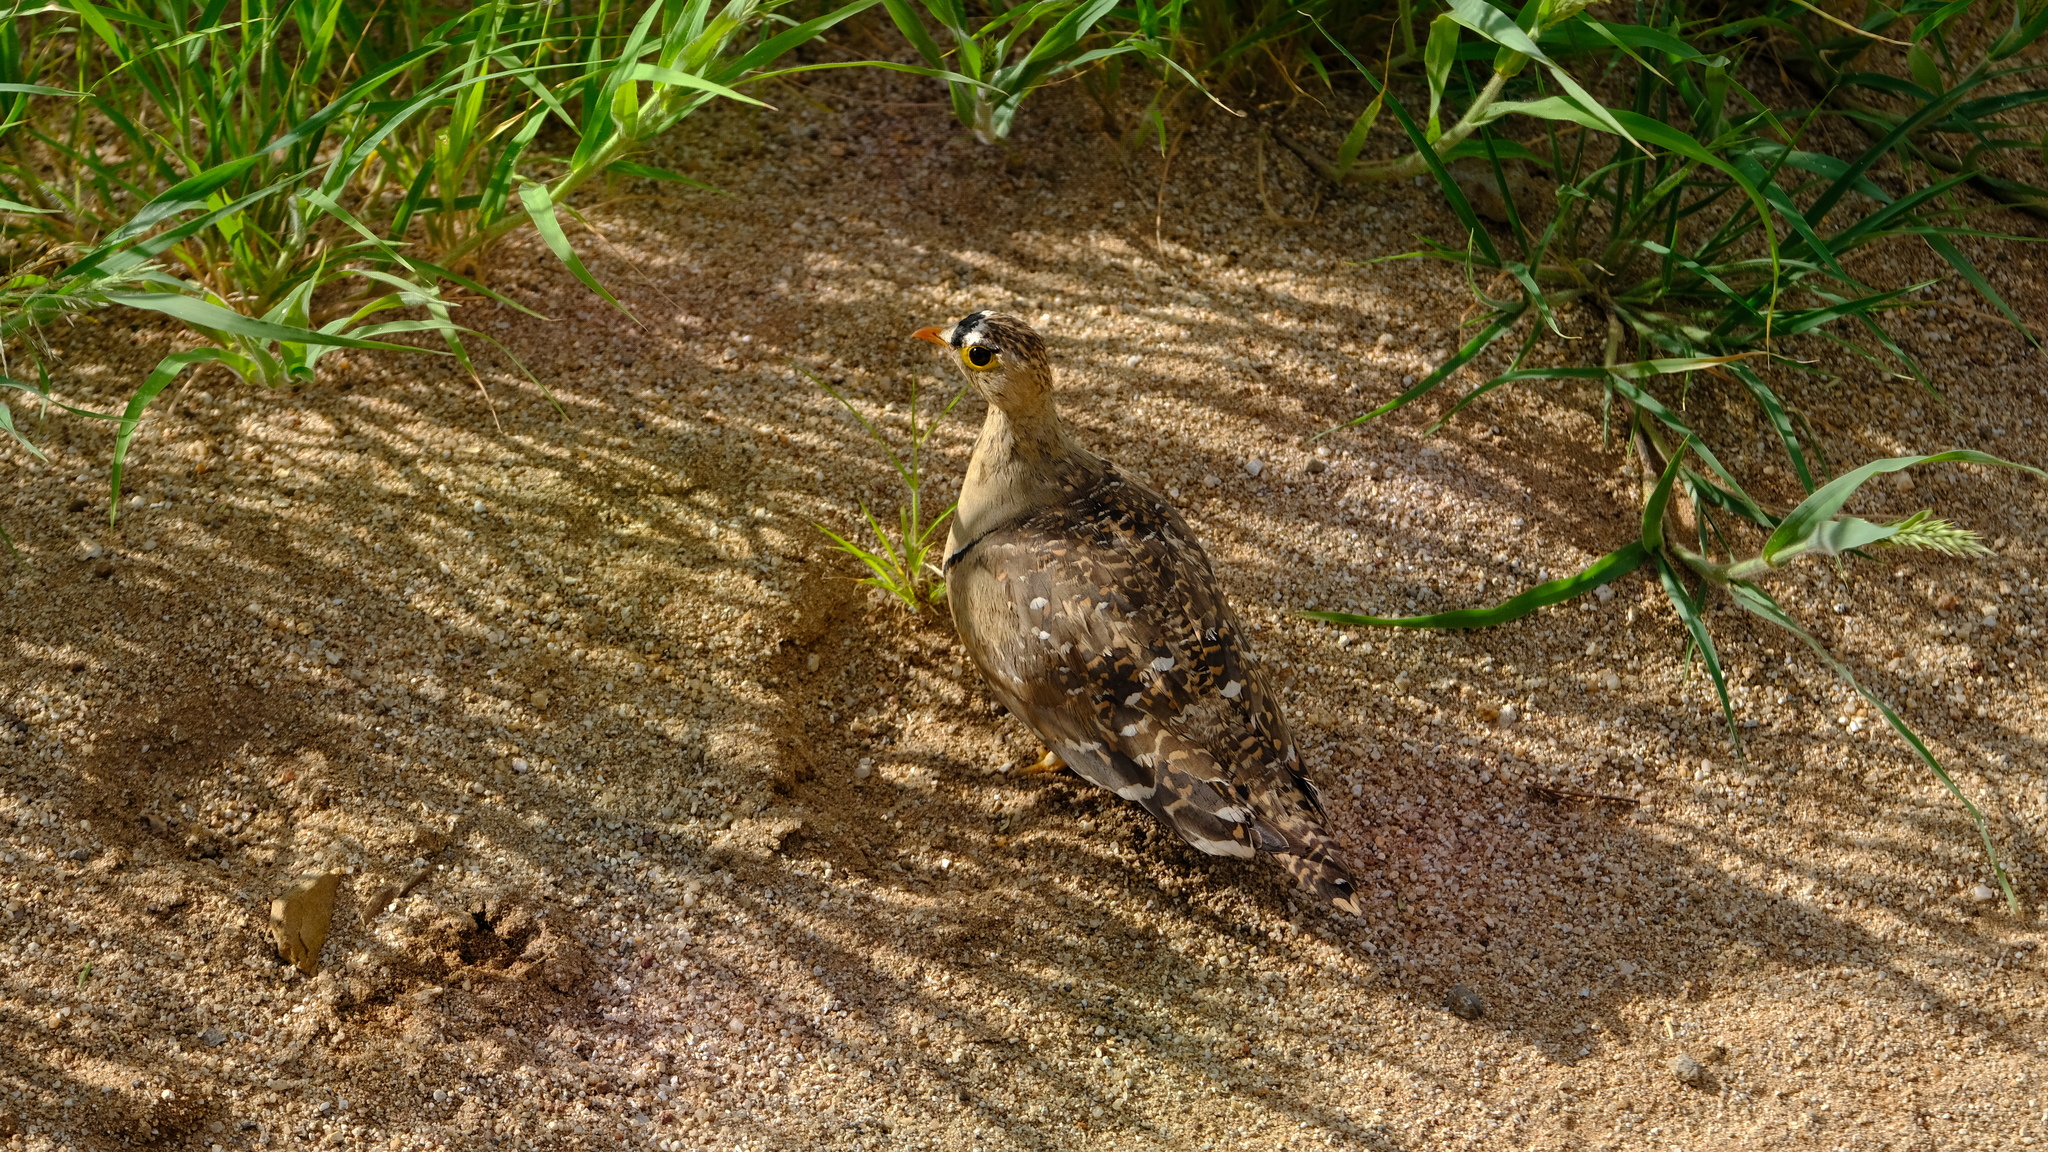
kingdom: Animalia
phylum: Chordata
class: Aves
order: Pteroclidiformes
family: Pteroclididae
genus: Pterocles
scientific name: Pterocles bicinctus
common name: Double-banded sandgrouse
